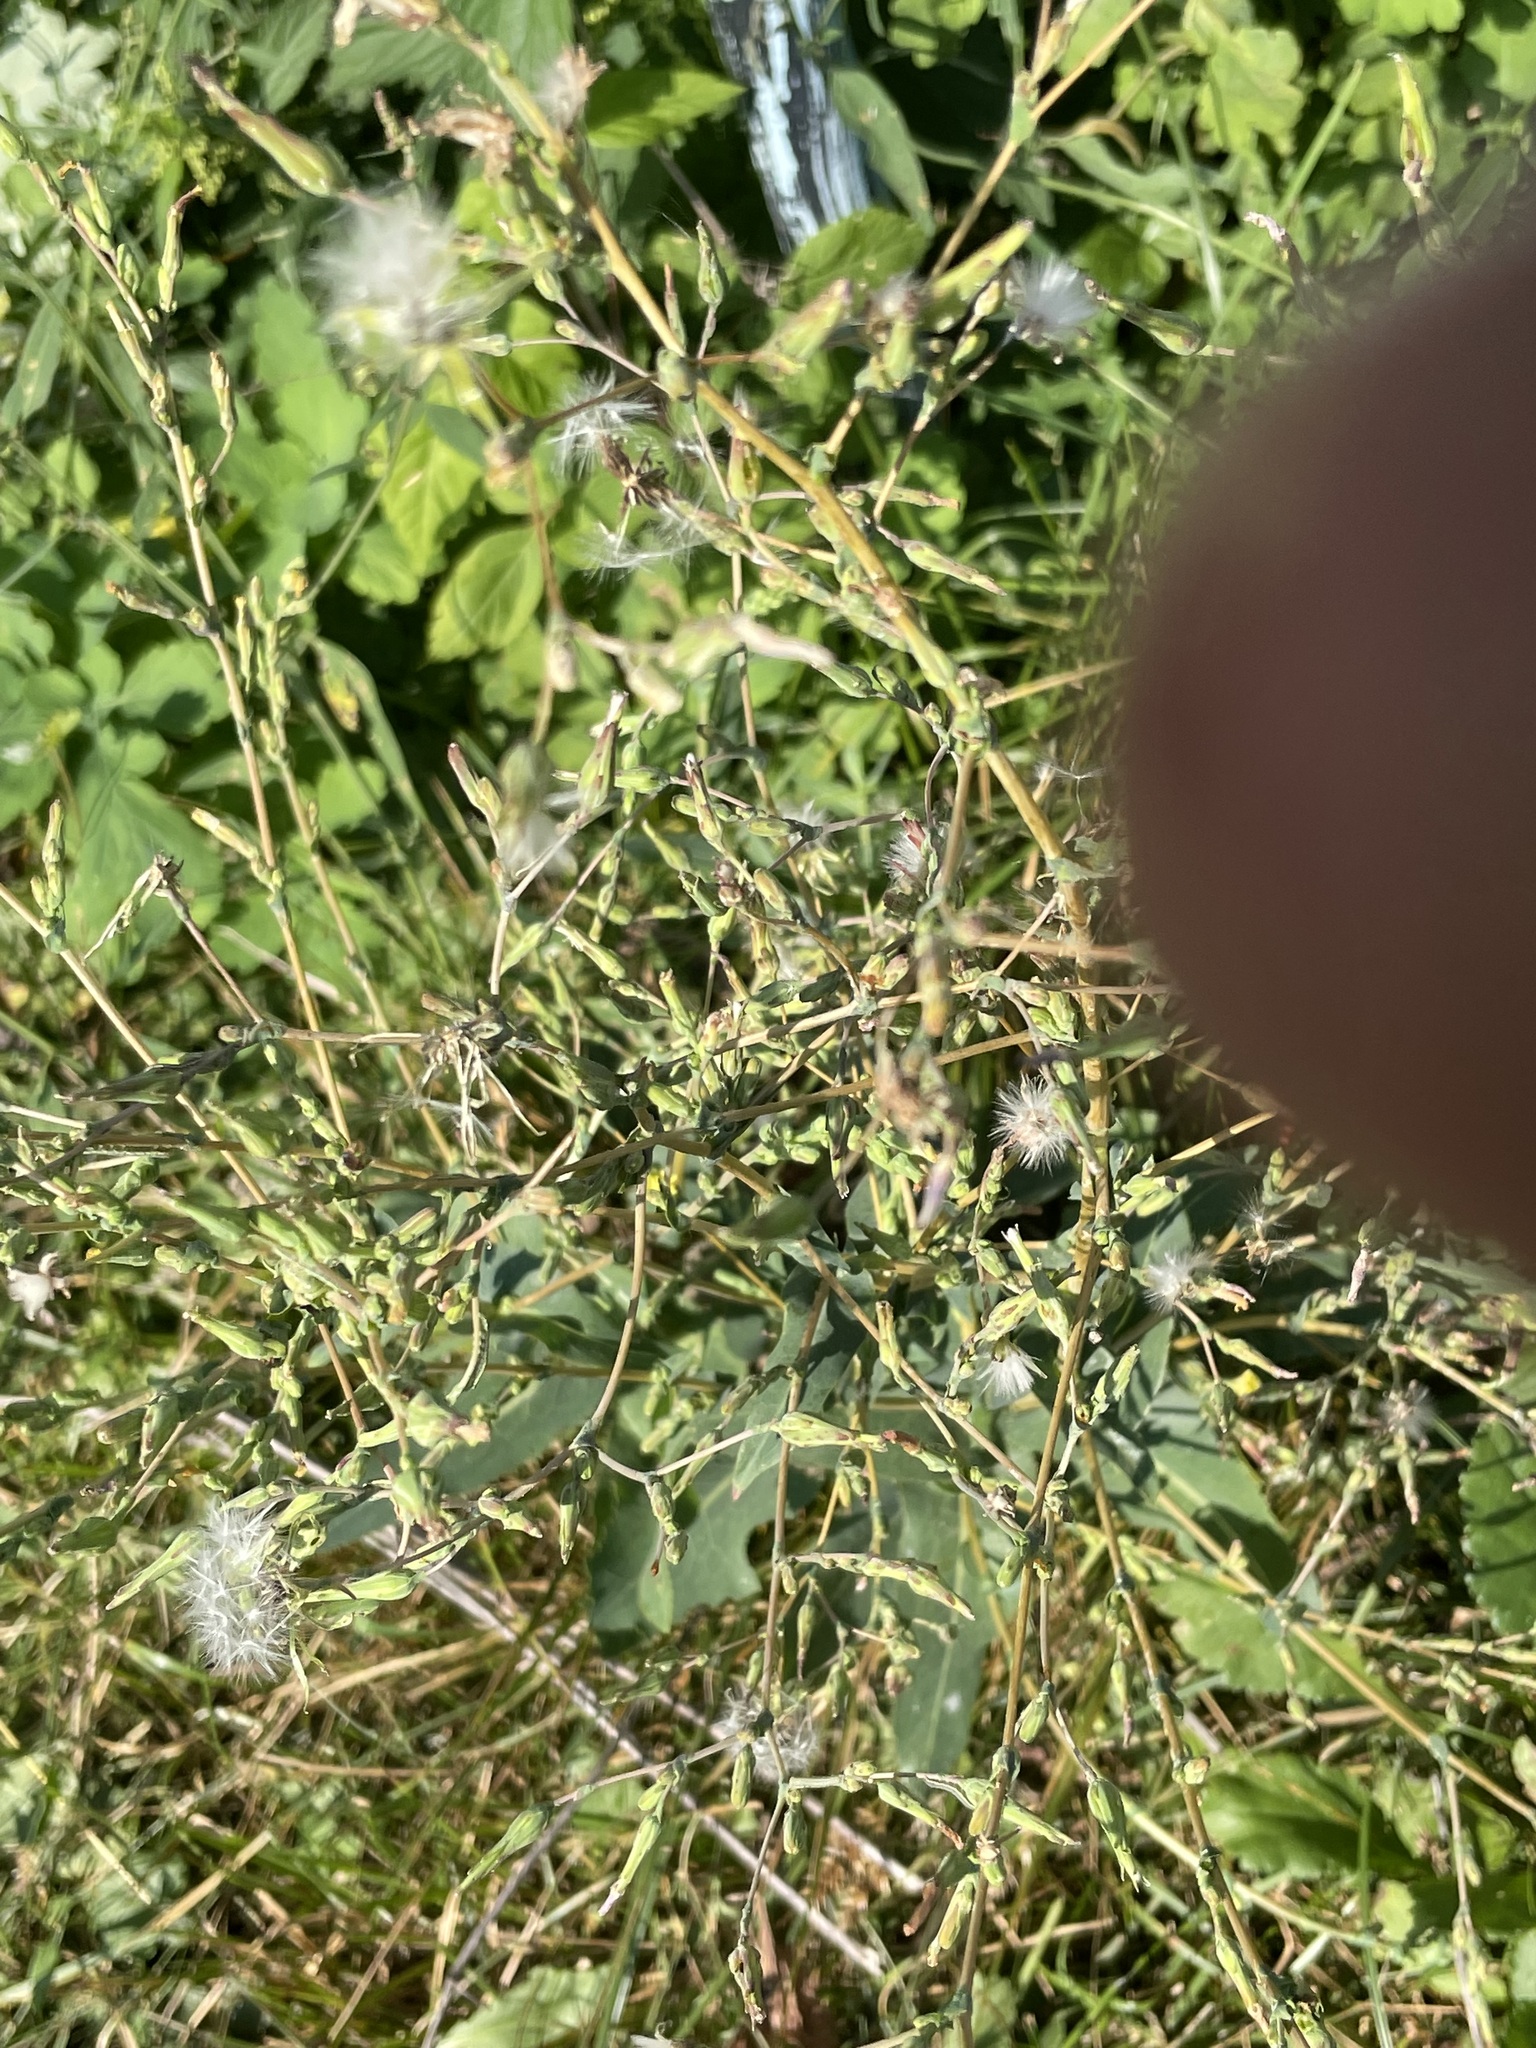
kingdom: Plantae
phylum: Tracheophyta
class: Magnoliopsida
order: Asterales
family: Asteraceae
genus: Lactuca
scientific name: Lactuca serriola
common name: Prickly lettuce
